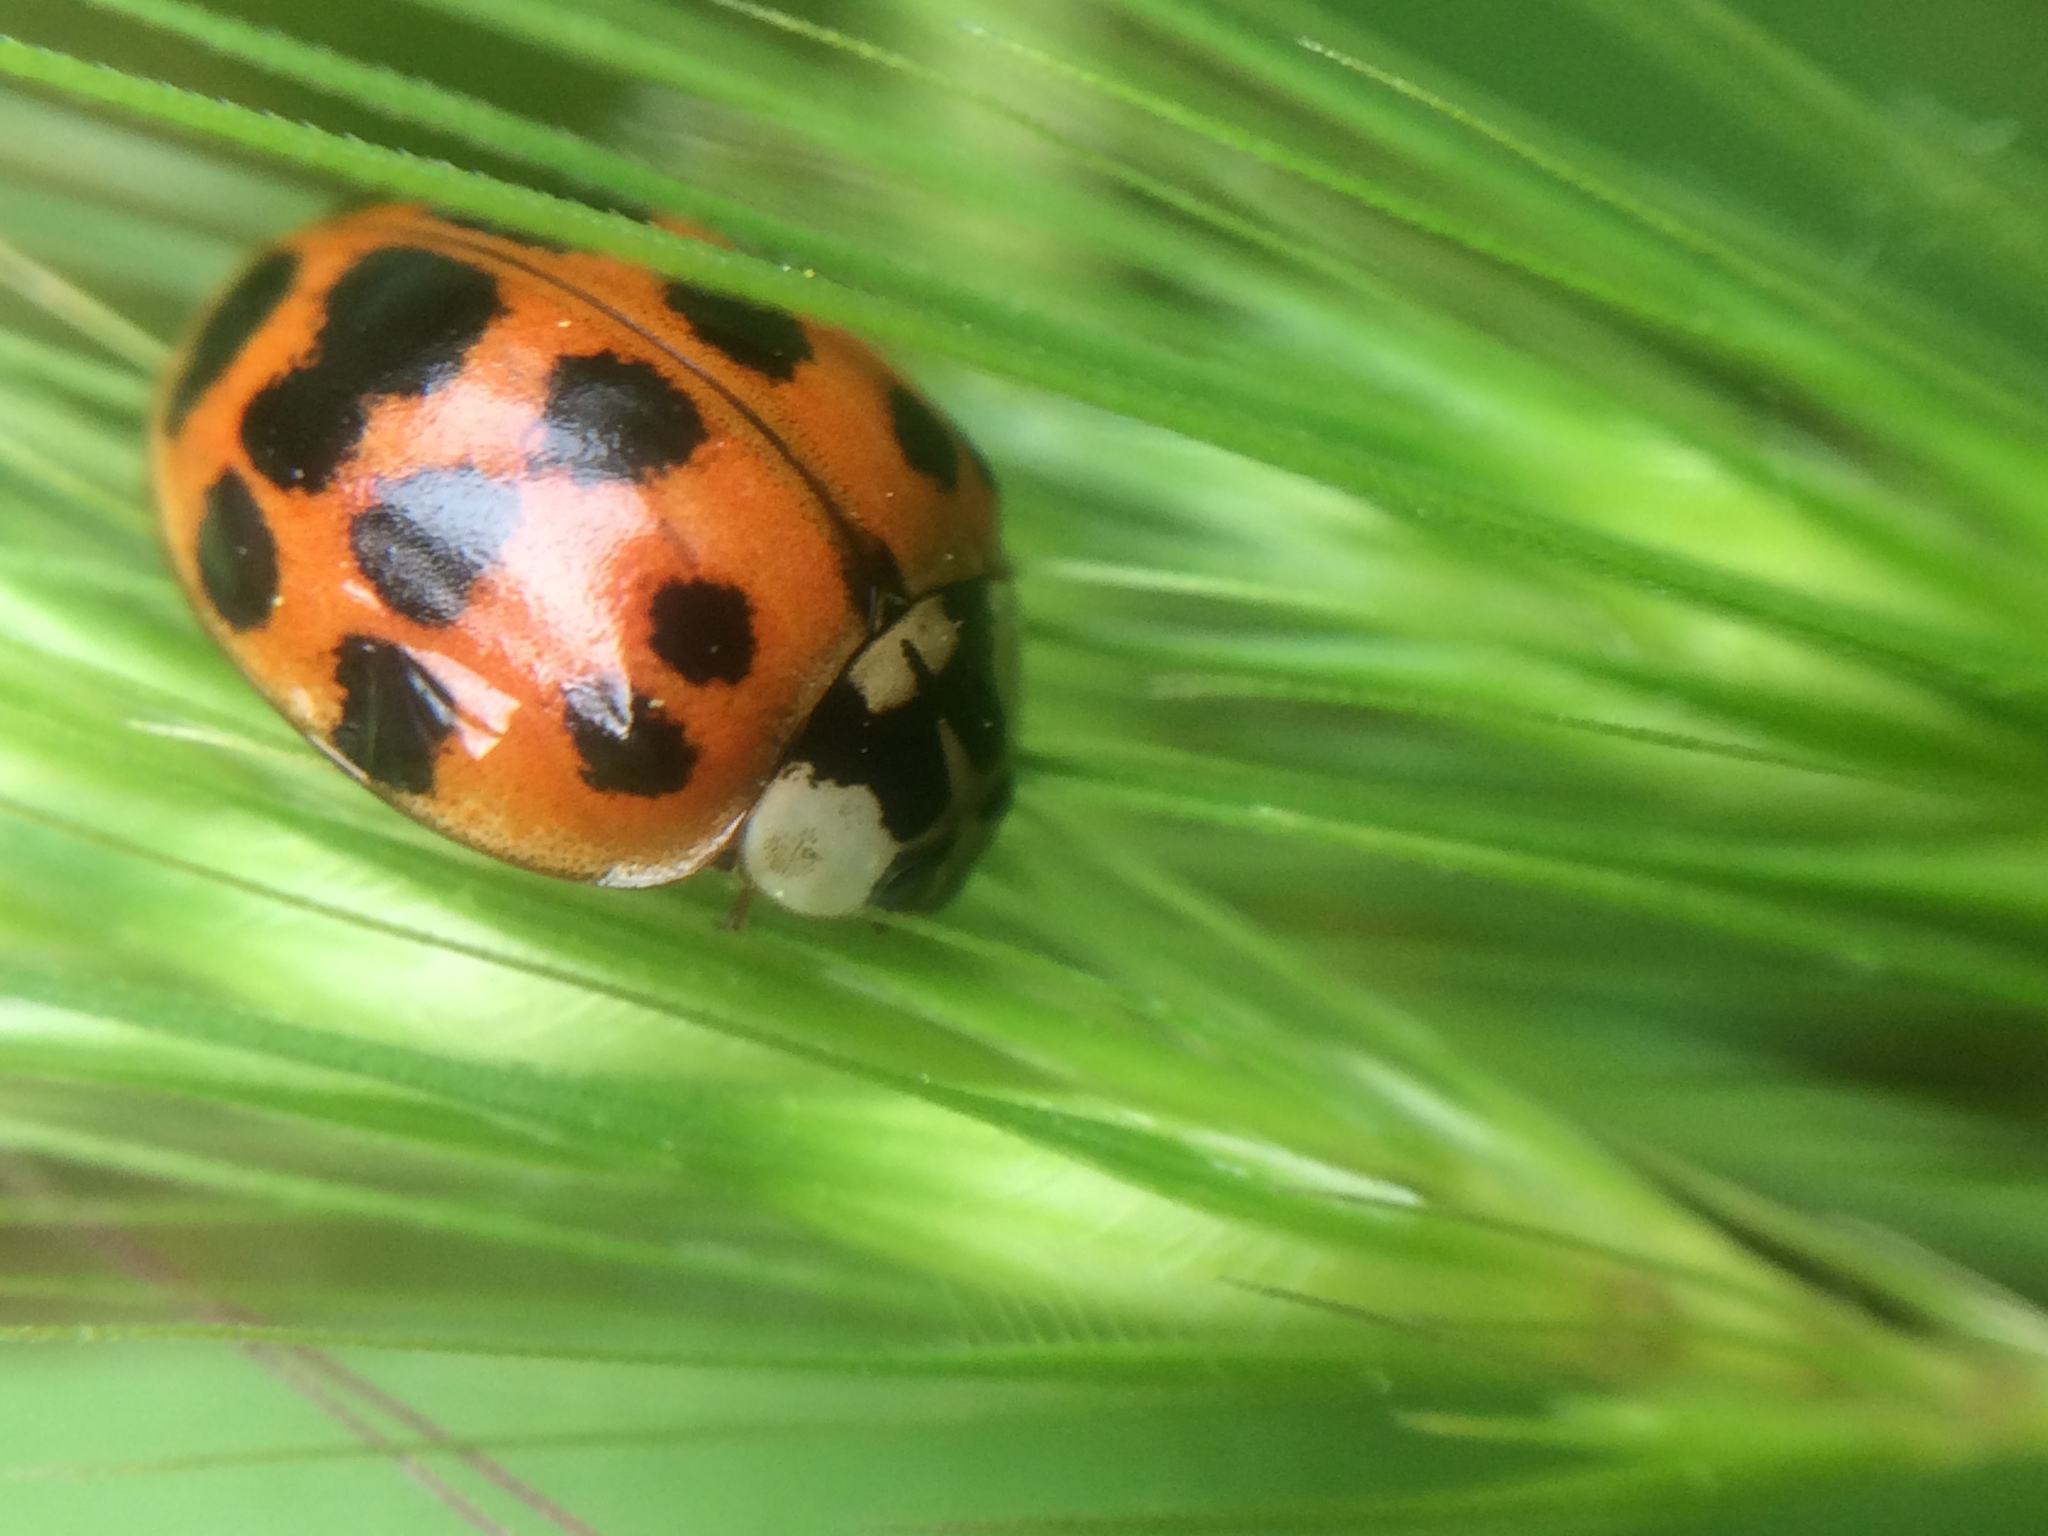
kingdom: Animalia
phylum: Arthropoda
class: Insecta
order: Coleoptera
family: Coccinellidae
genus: Harmonia
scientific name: Harmonia axyridis
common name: Harlequin ladybird
